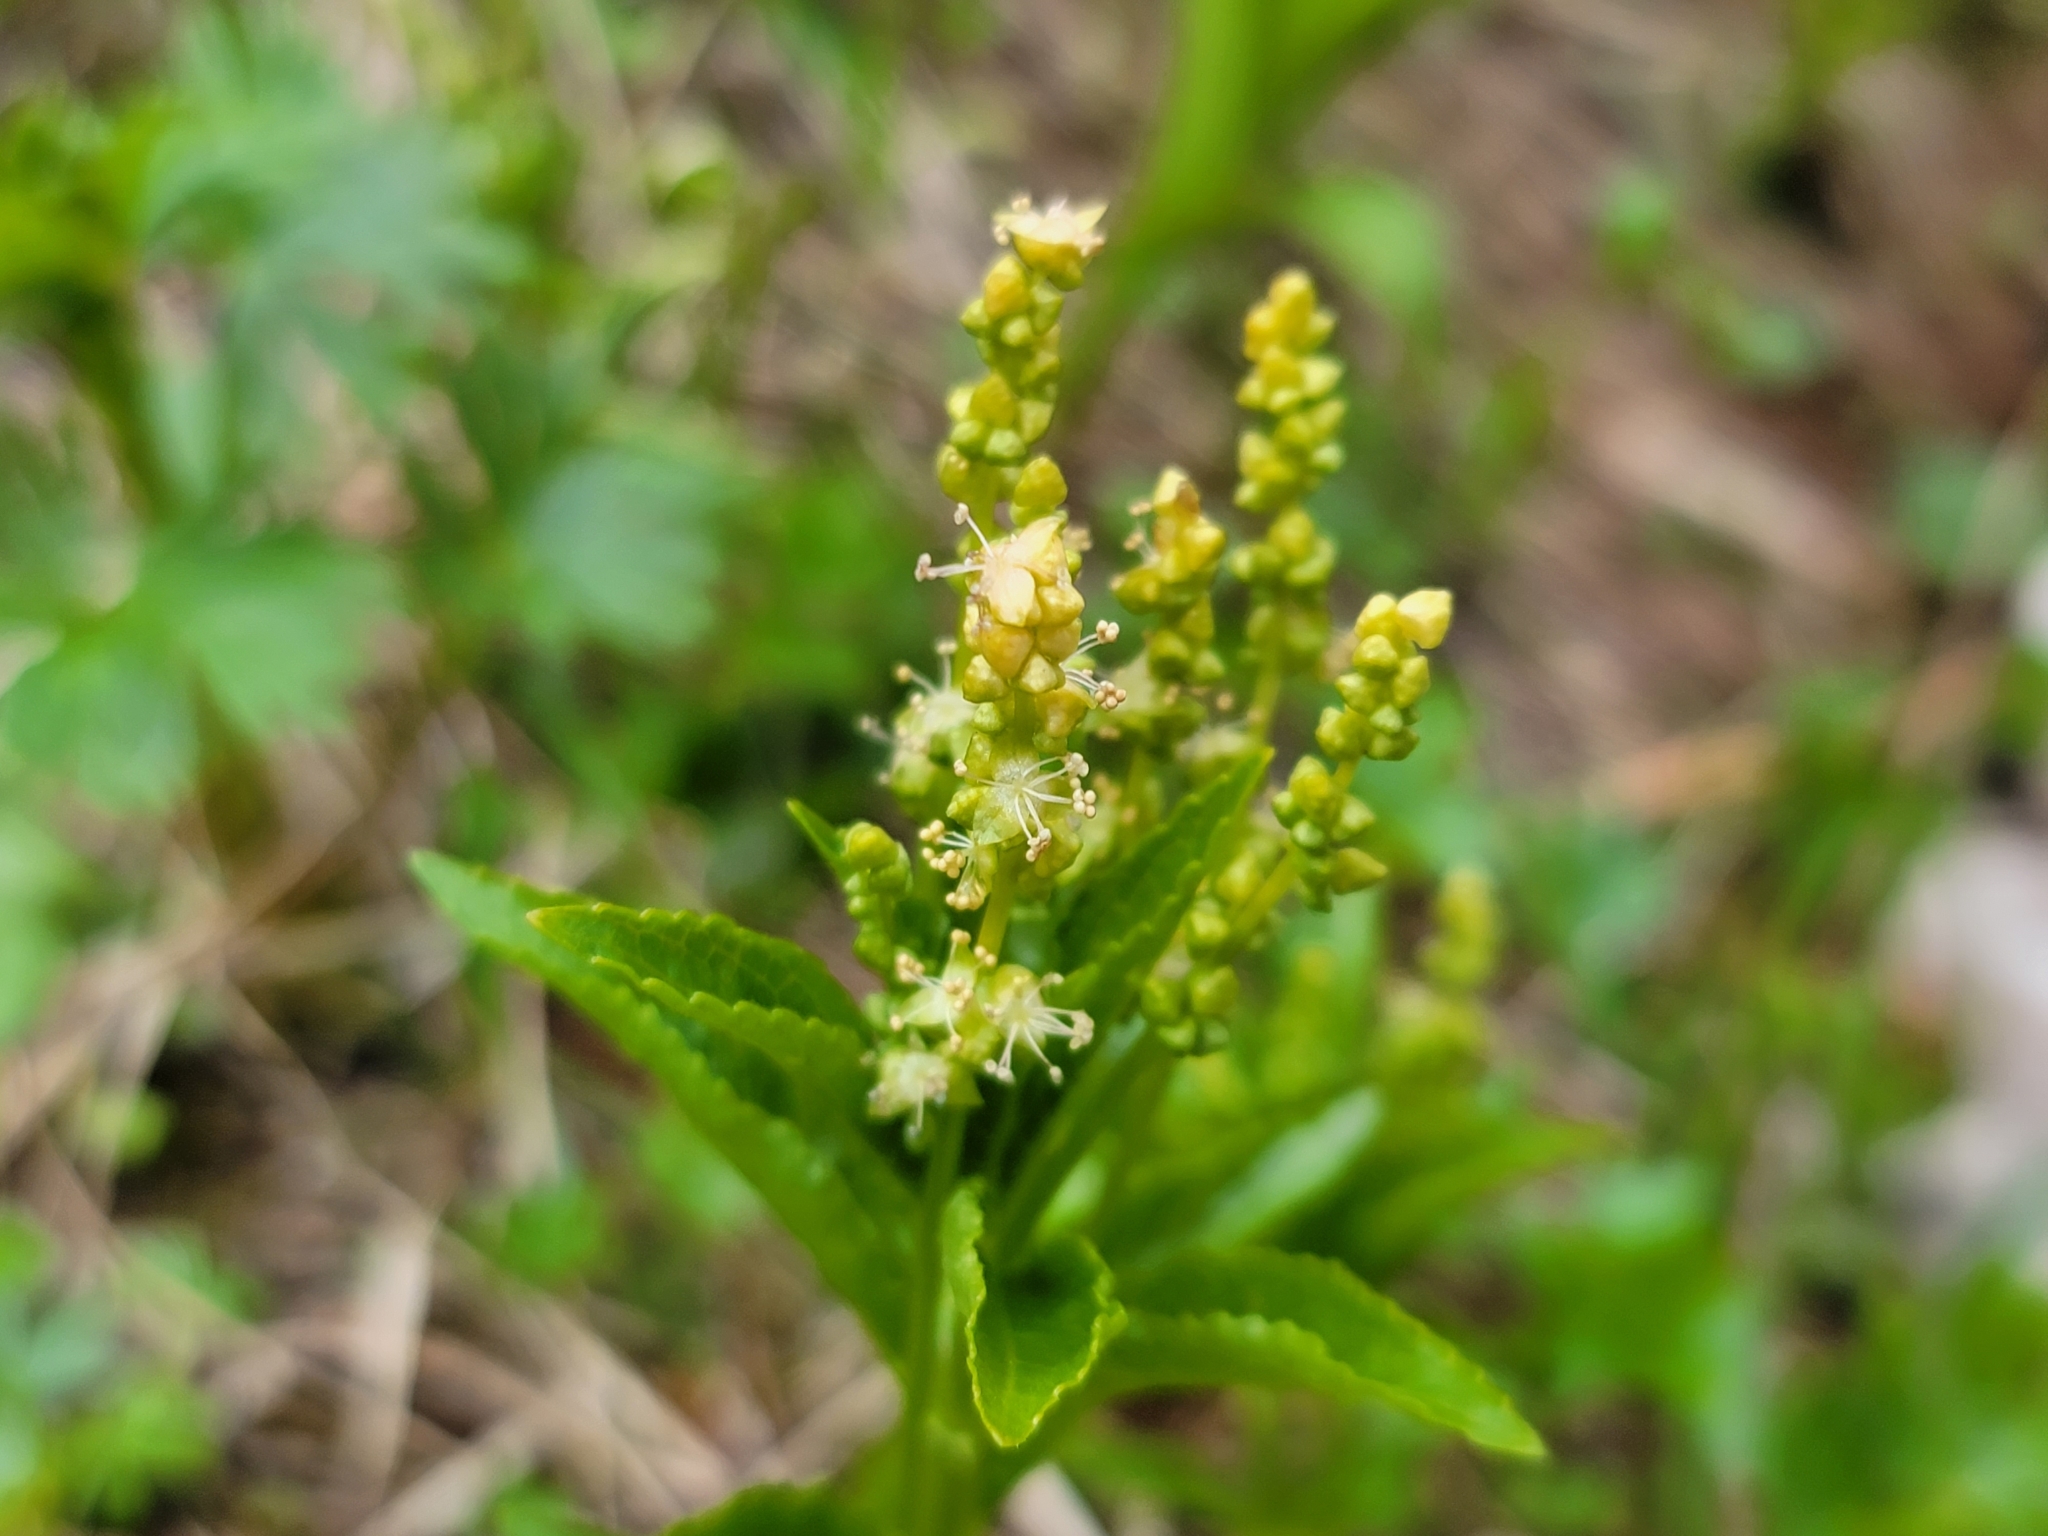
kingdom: Plantae
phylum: Tracheophyta
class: Magnoliopsida
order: Malpighiales
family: Euphorbiaceae
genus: Mercurialis
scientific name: Mercurialis perennis
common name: Dog mercury
